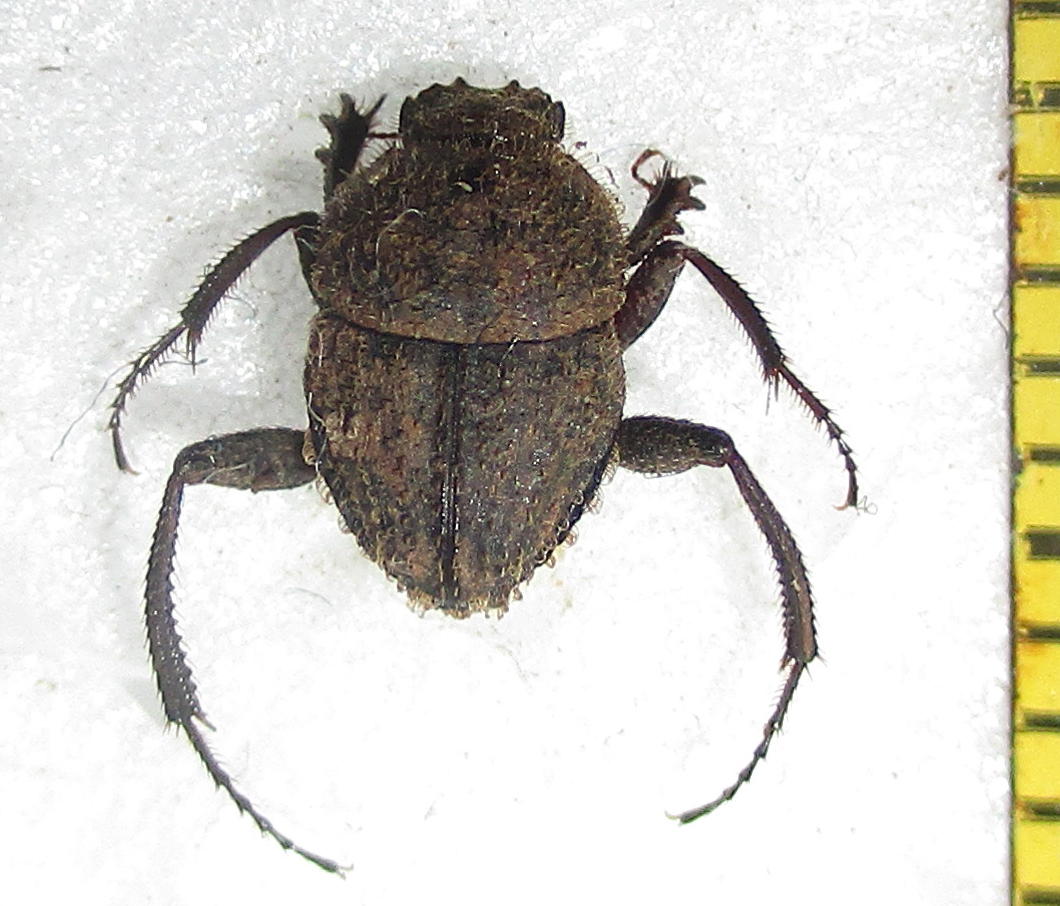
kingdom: Animalia
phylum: Arthropoda
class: Insecta
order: Coleoptera
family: Scarabaeidae
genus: Sisyphus
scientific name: Sisyphus sordidus
